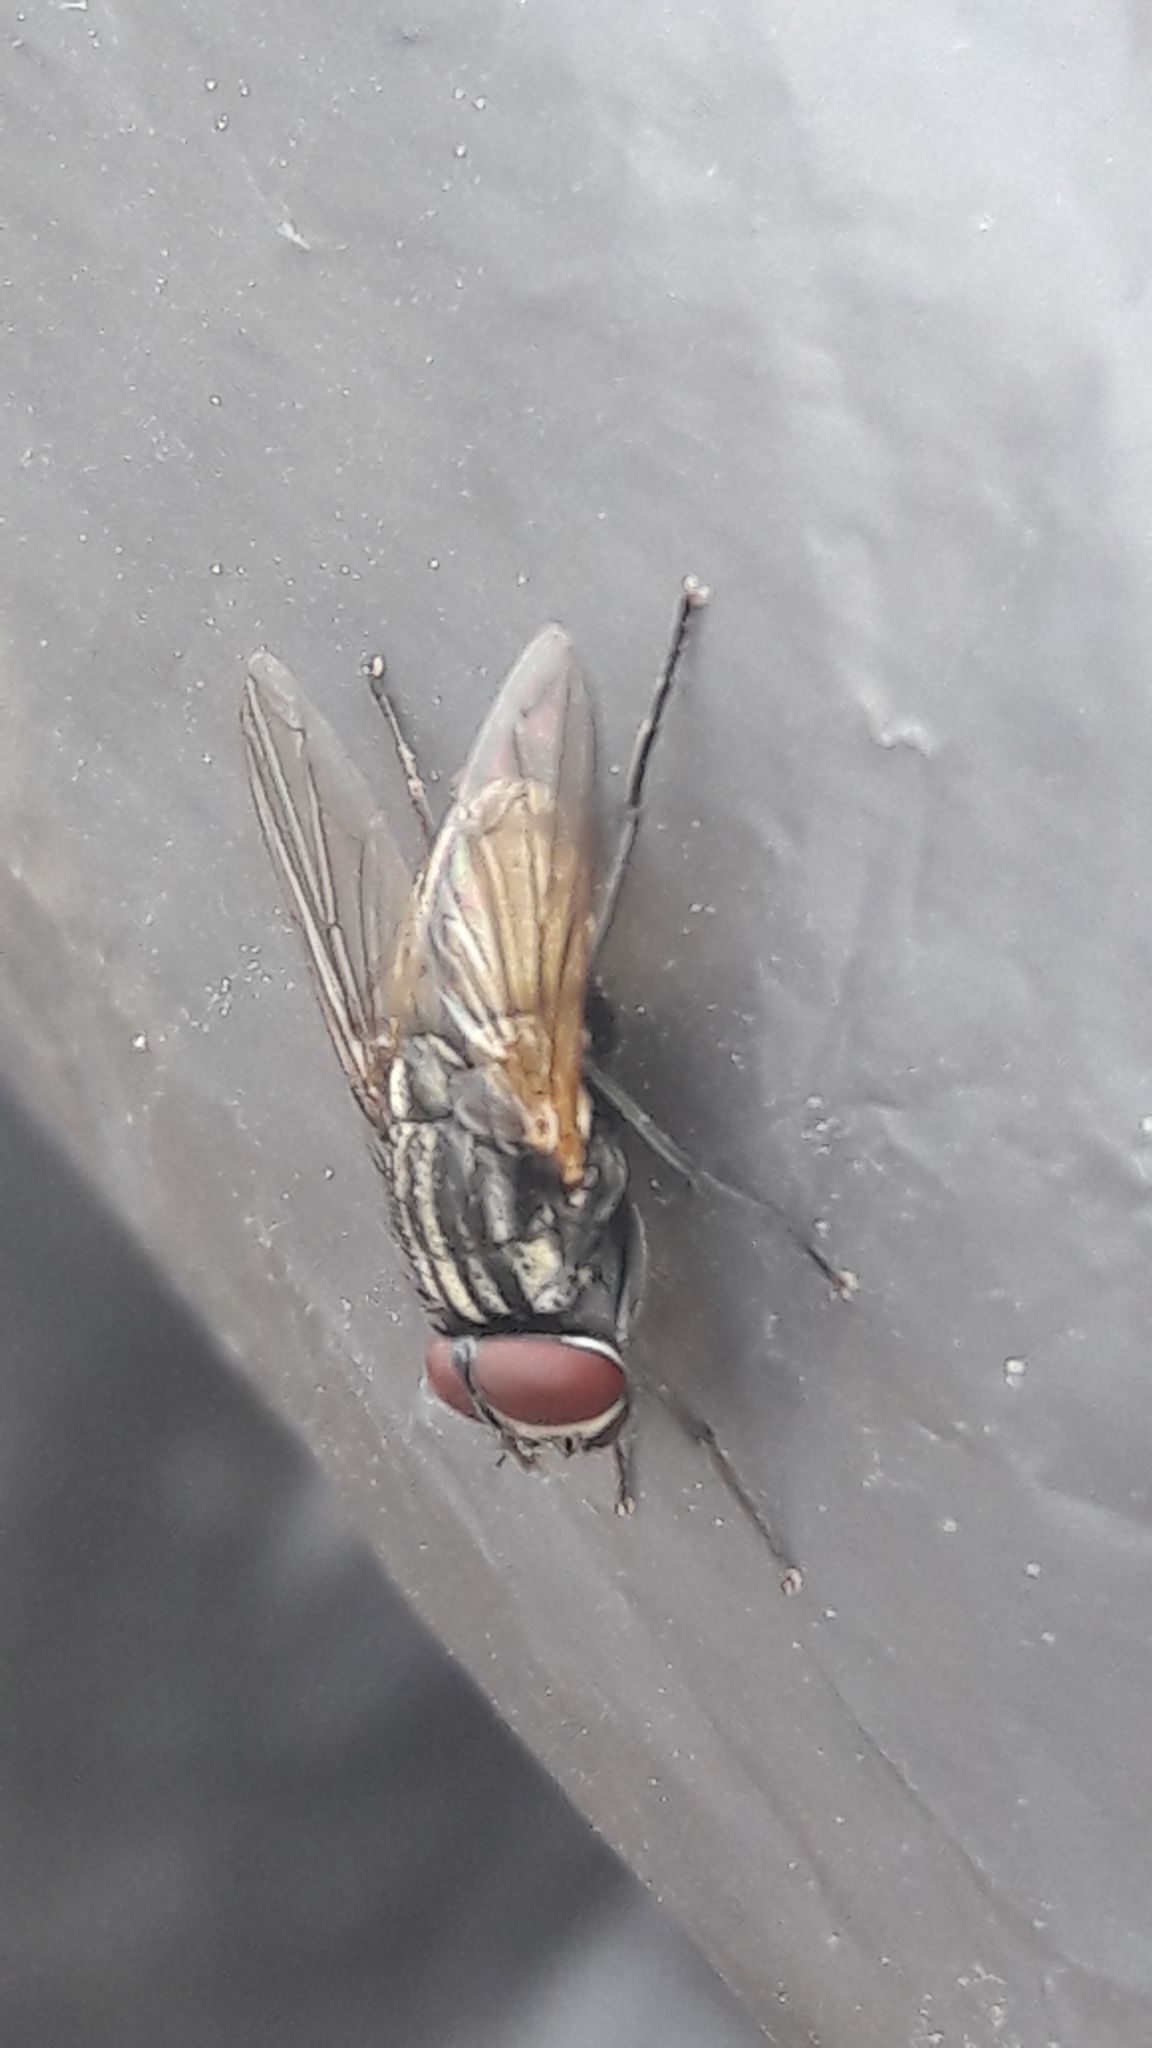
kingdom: Animalia
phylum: Arthropoda
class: Insecta
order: Diptera
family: Muscidae
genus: Musca
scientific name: Musca domestica
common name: House fly
